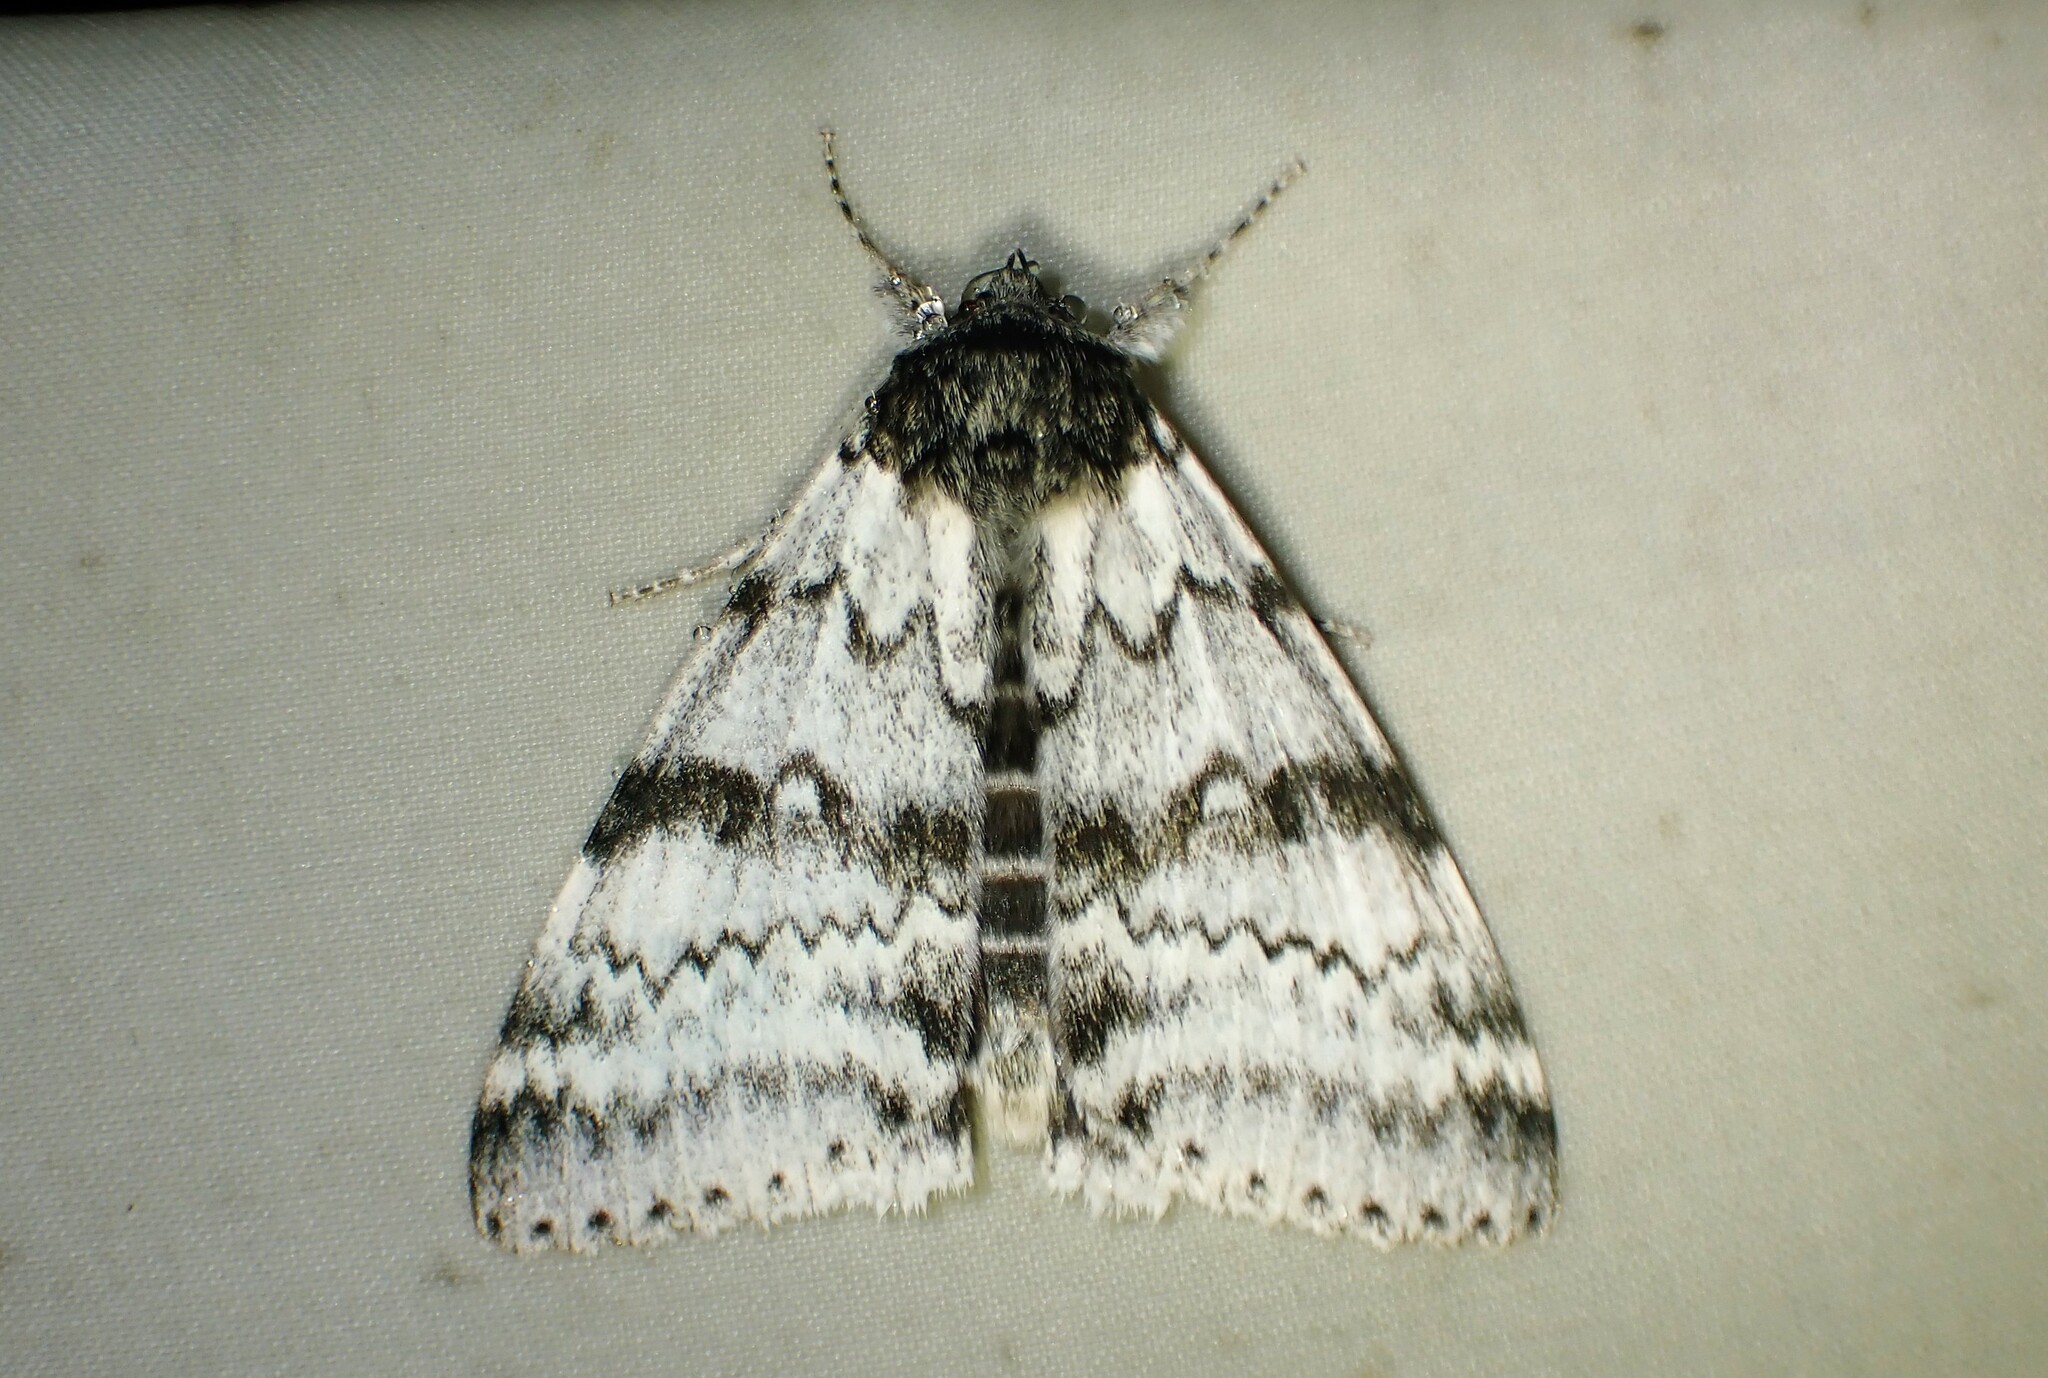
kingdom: Animalia
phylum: Arthropoda
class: Insecta
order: Lepidoptera
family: Erebidae
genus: Catocala
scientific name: Catocala relicta
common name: White underwing
